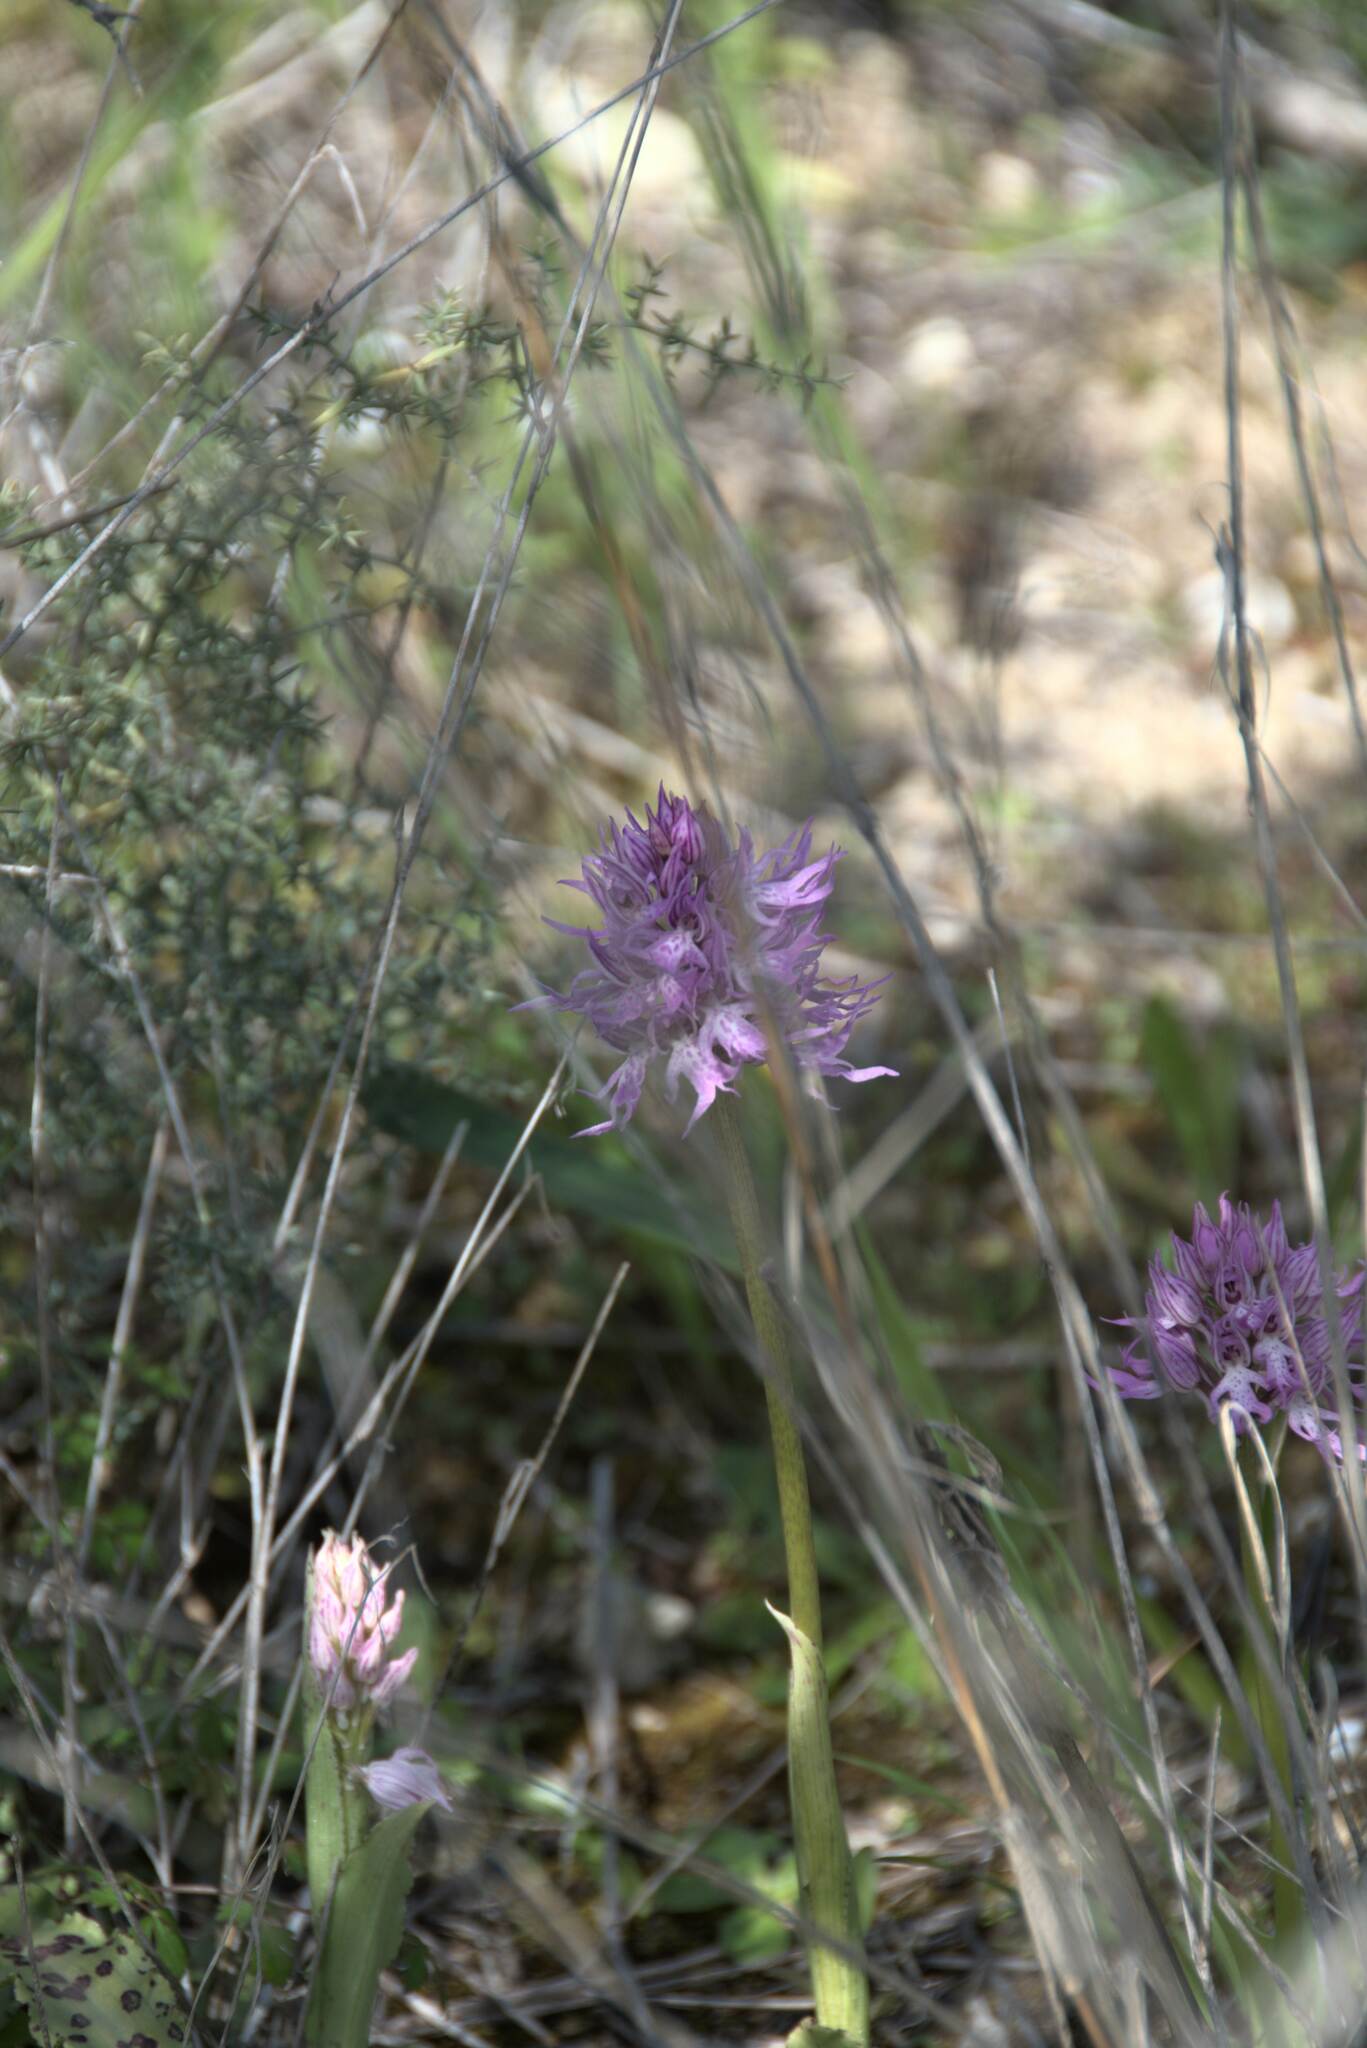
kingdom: Plantae
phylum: Tracheophyta
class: Liliopsida
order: Asparagales
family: Orchidaceae
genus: Orchis
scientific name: Orchis italica
